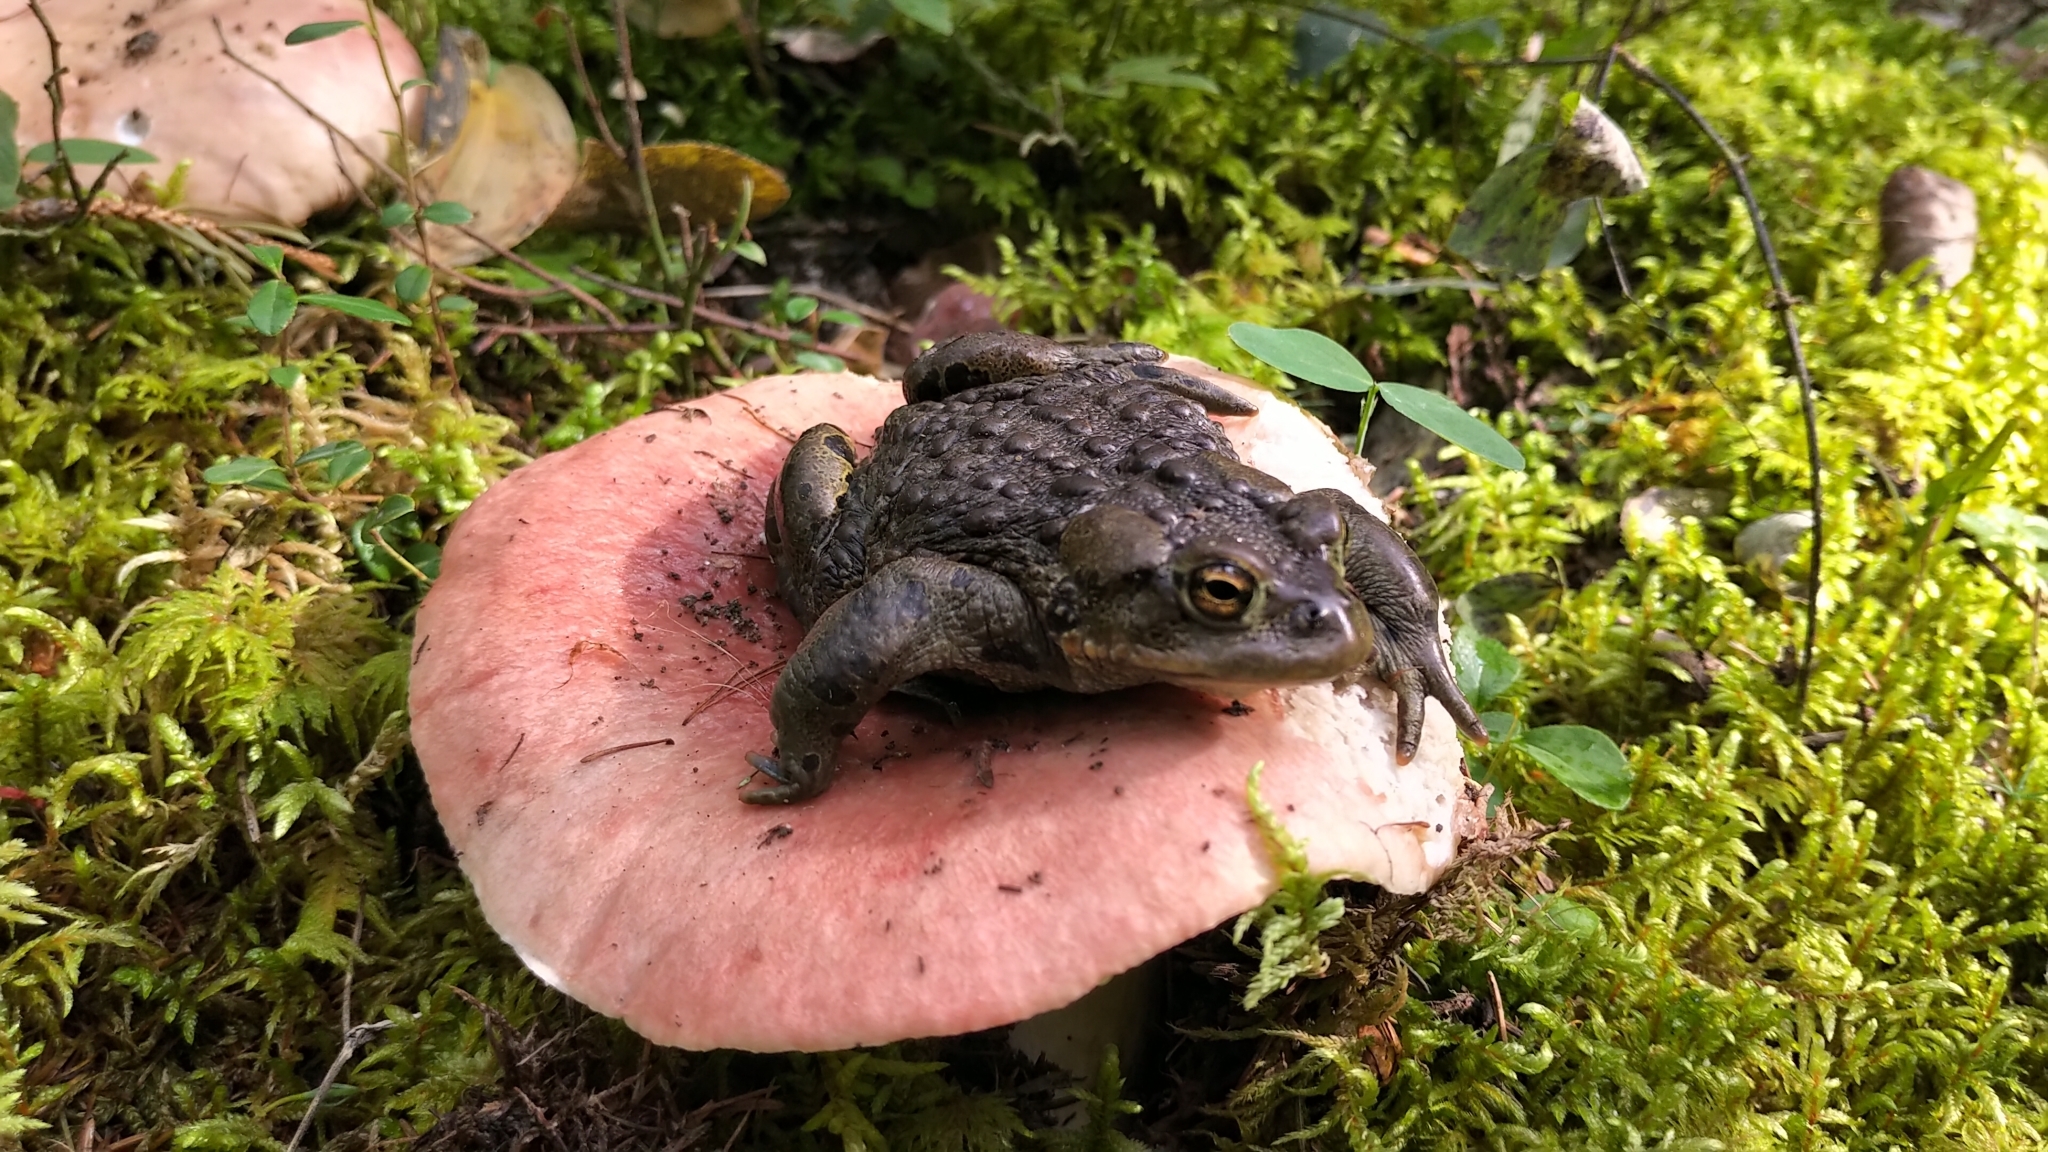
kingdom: Animalia
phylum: Chordata
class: Amphibia
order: Anura
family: Bufonidae
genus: Anaxyrus
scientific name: Anaxyrus boreas
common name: Western toad
